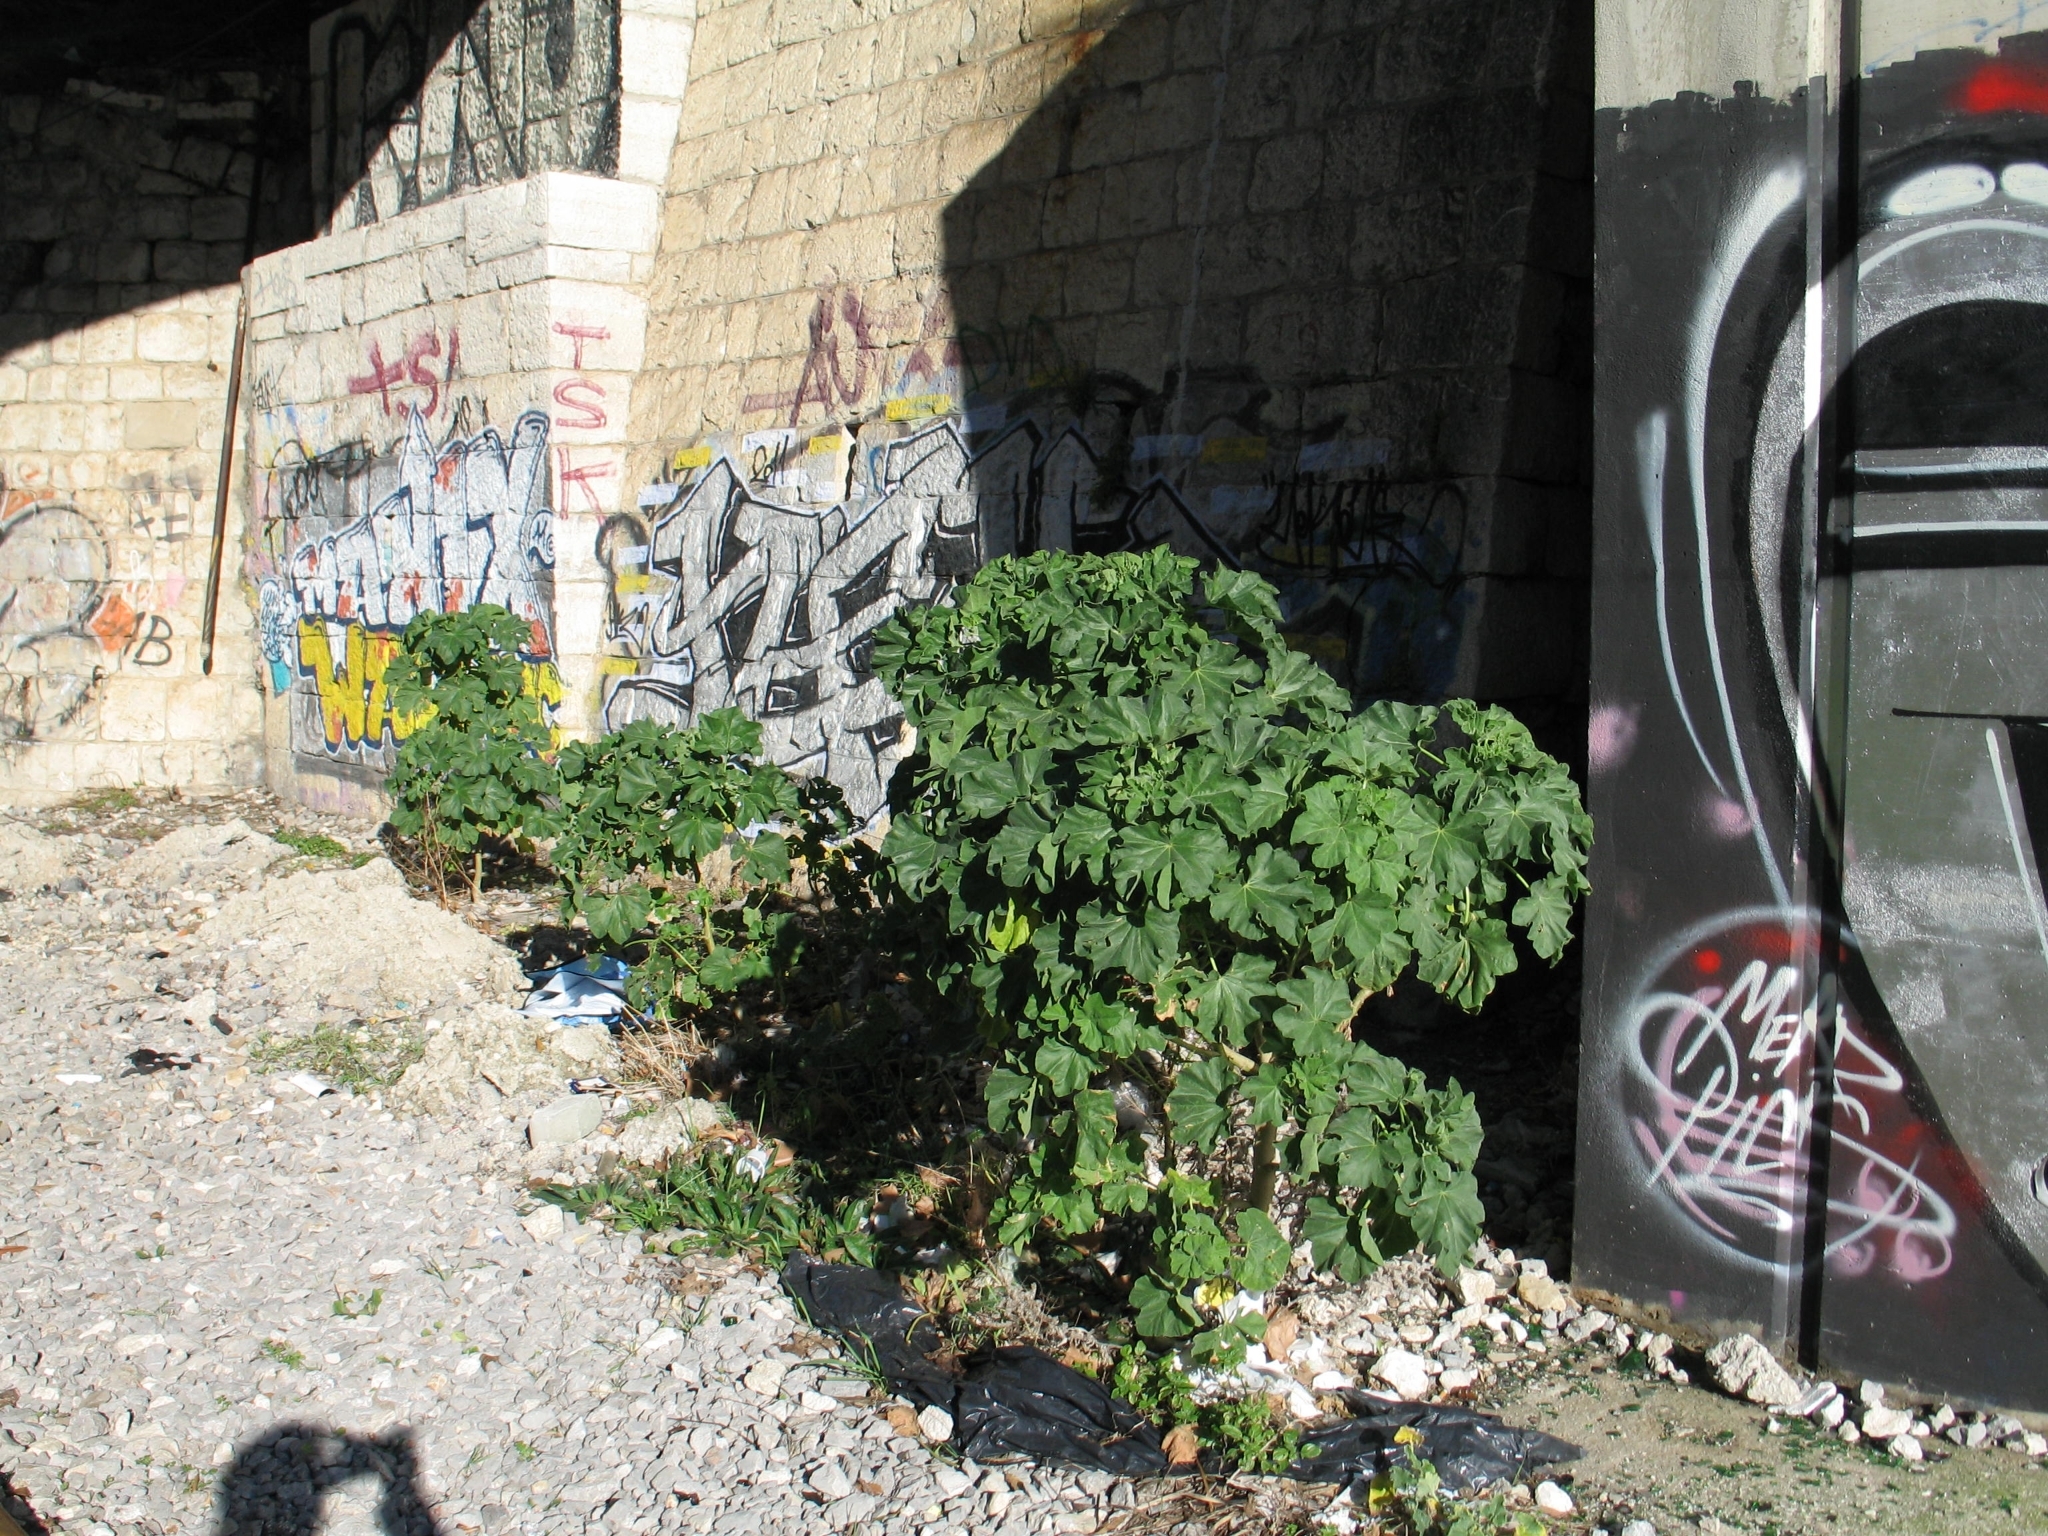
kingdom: Plantae
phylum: Tracheophyta
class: Magnoliopsida
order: Malvales
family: Malvaceae
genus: Malva
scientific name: Malva arborea
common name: Tree mallow
